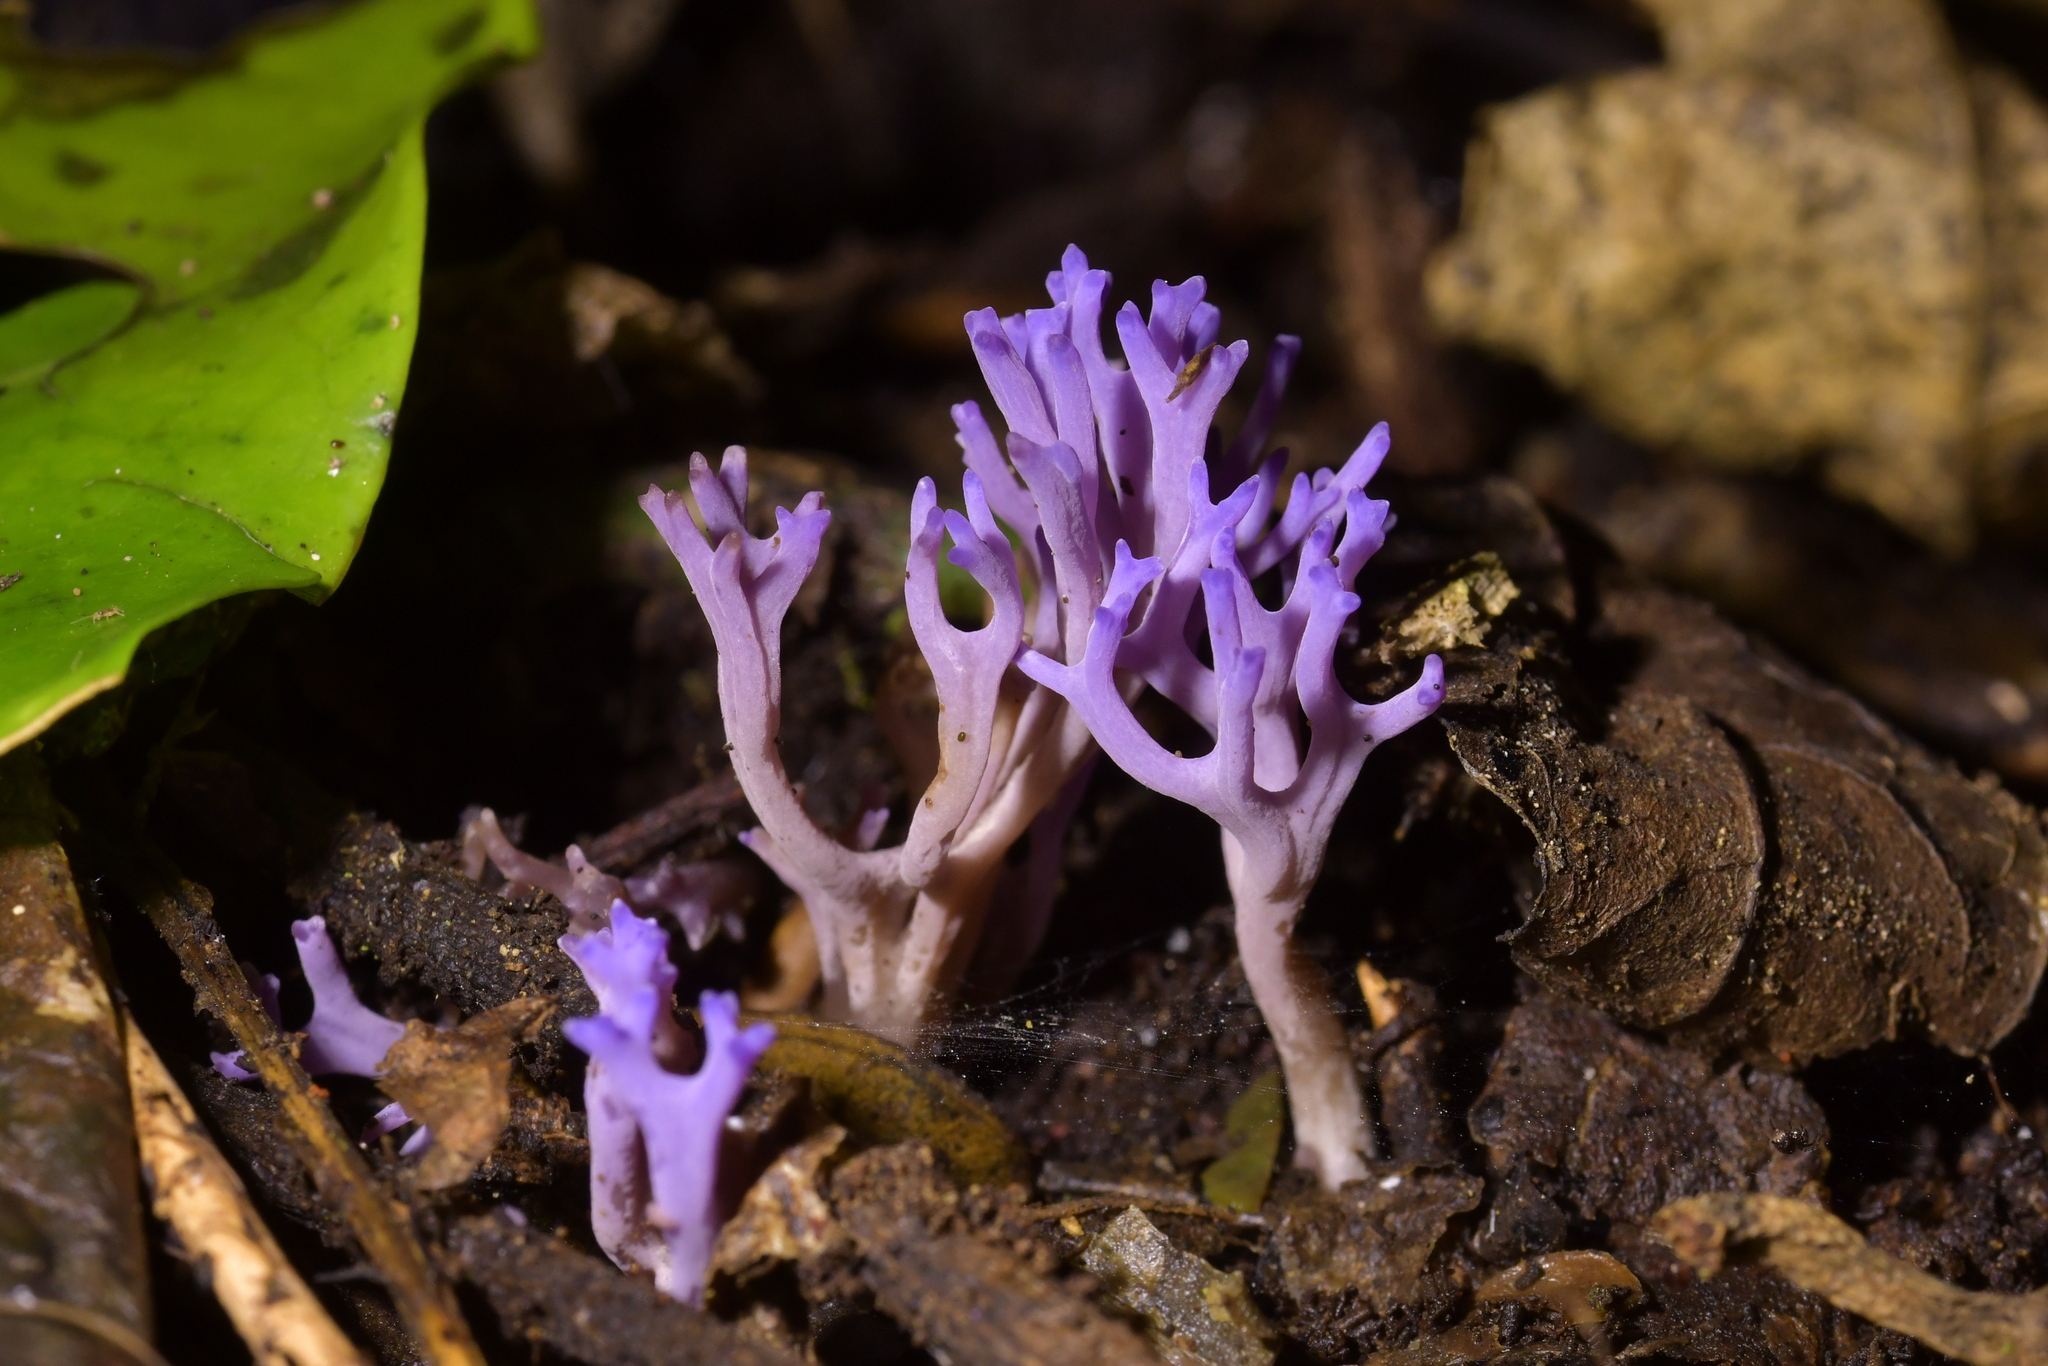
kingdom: Fungi
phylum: Basidiomycota
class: Agaricomycetes
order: Agaricales
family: Clavariaceae
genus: Ramariopsis
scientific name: Ramariopsis pulchella
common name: Lilac coral
